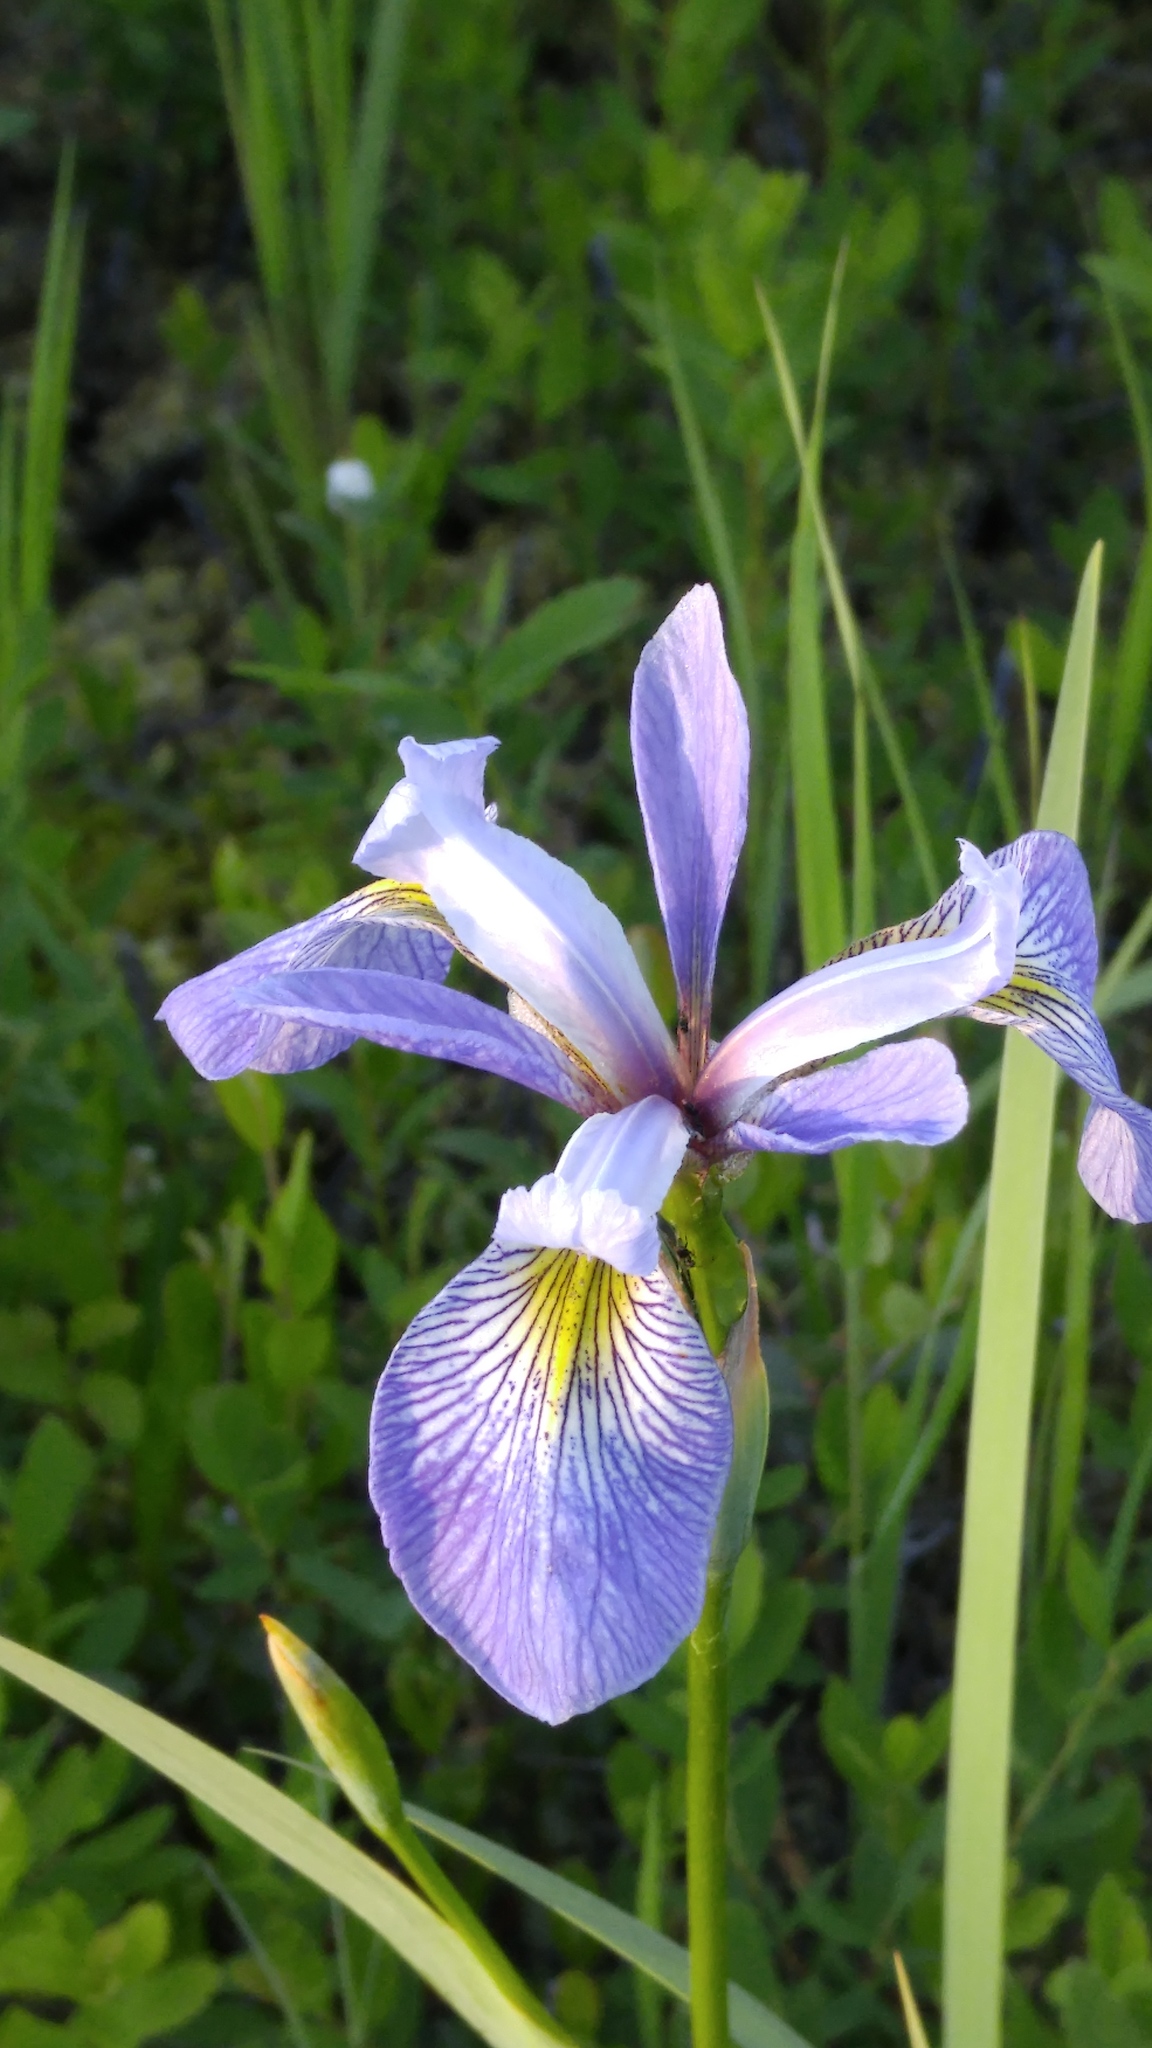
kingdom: Plantae
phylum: Tracheophyta
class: Liliopsida
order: Asparagales
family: Iridaceae
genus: Iris
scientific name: Iris versicolor
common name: Purple iris
